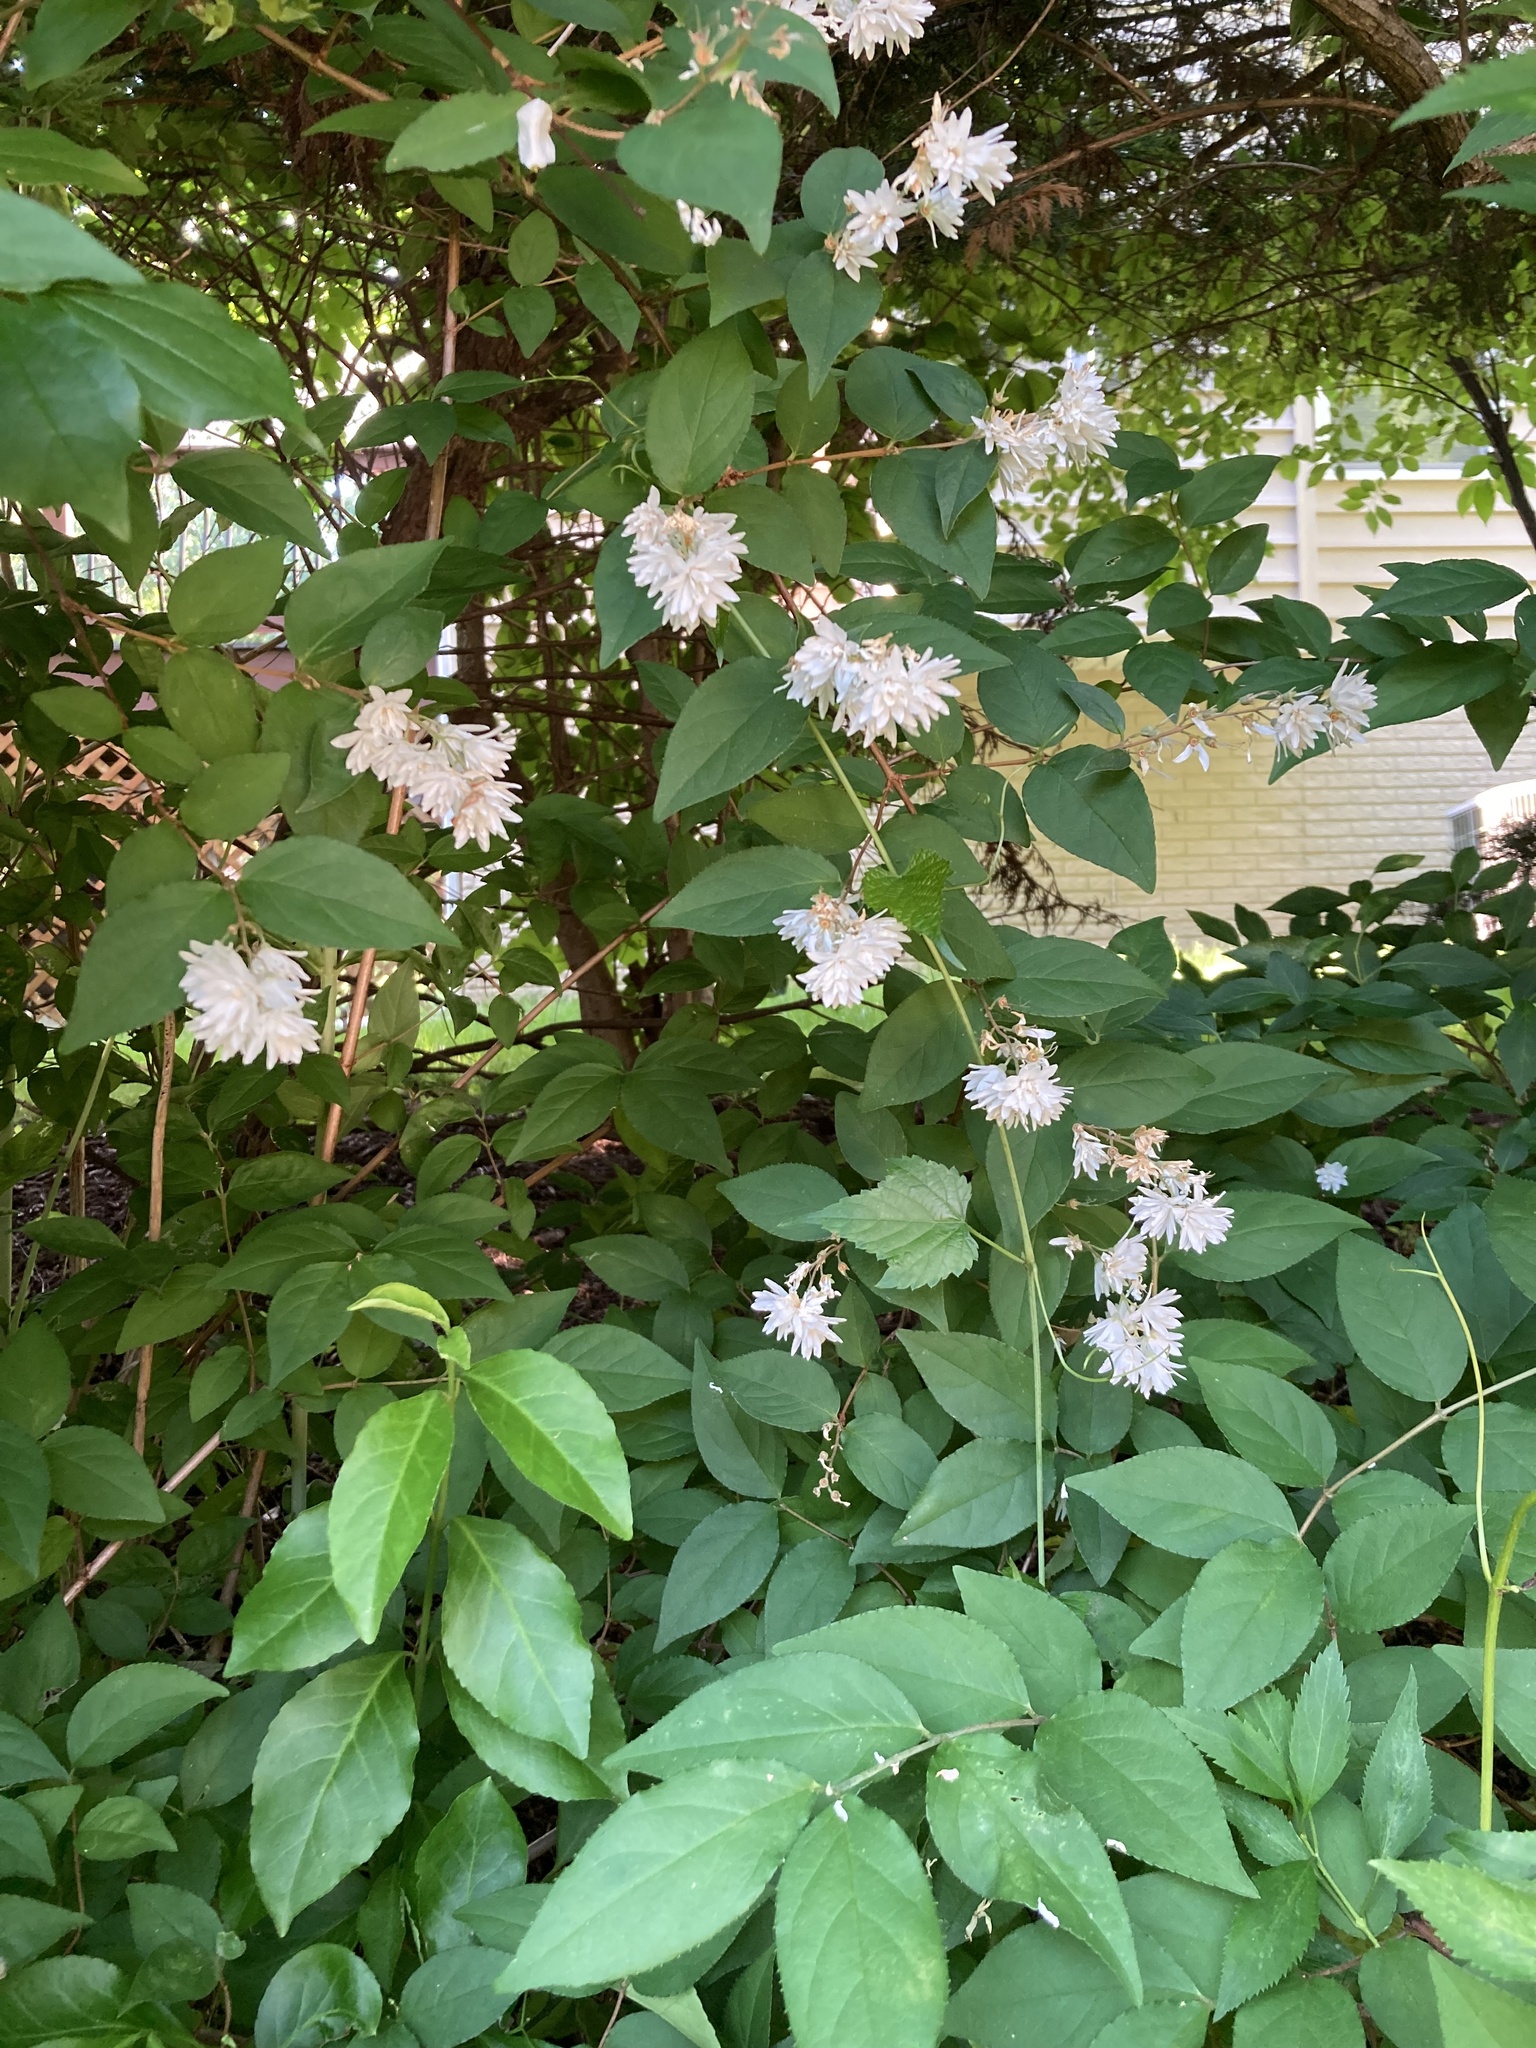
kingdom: Plantae
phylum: Tracheophyta
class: Magnoliopsida
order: Cornales
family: Hydrangeaceae
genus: Deutzia
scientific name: Deutzia scabra
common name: Deutzia
